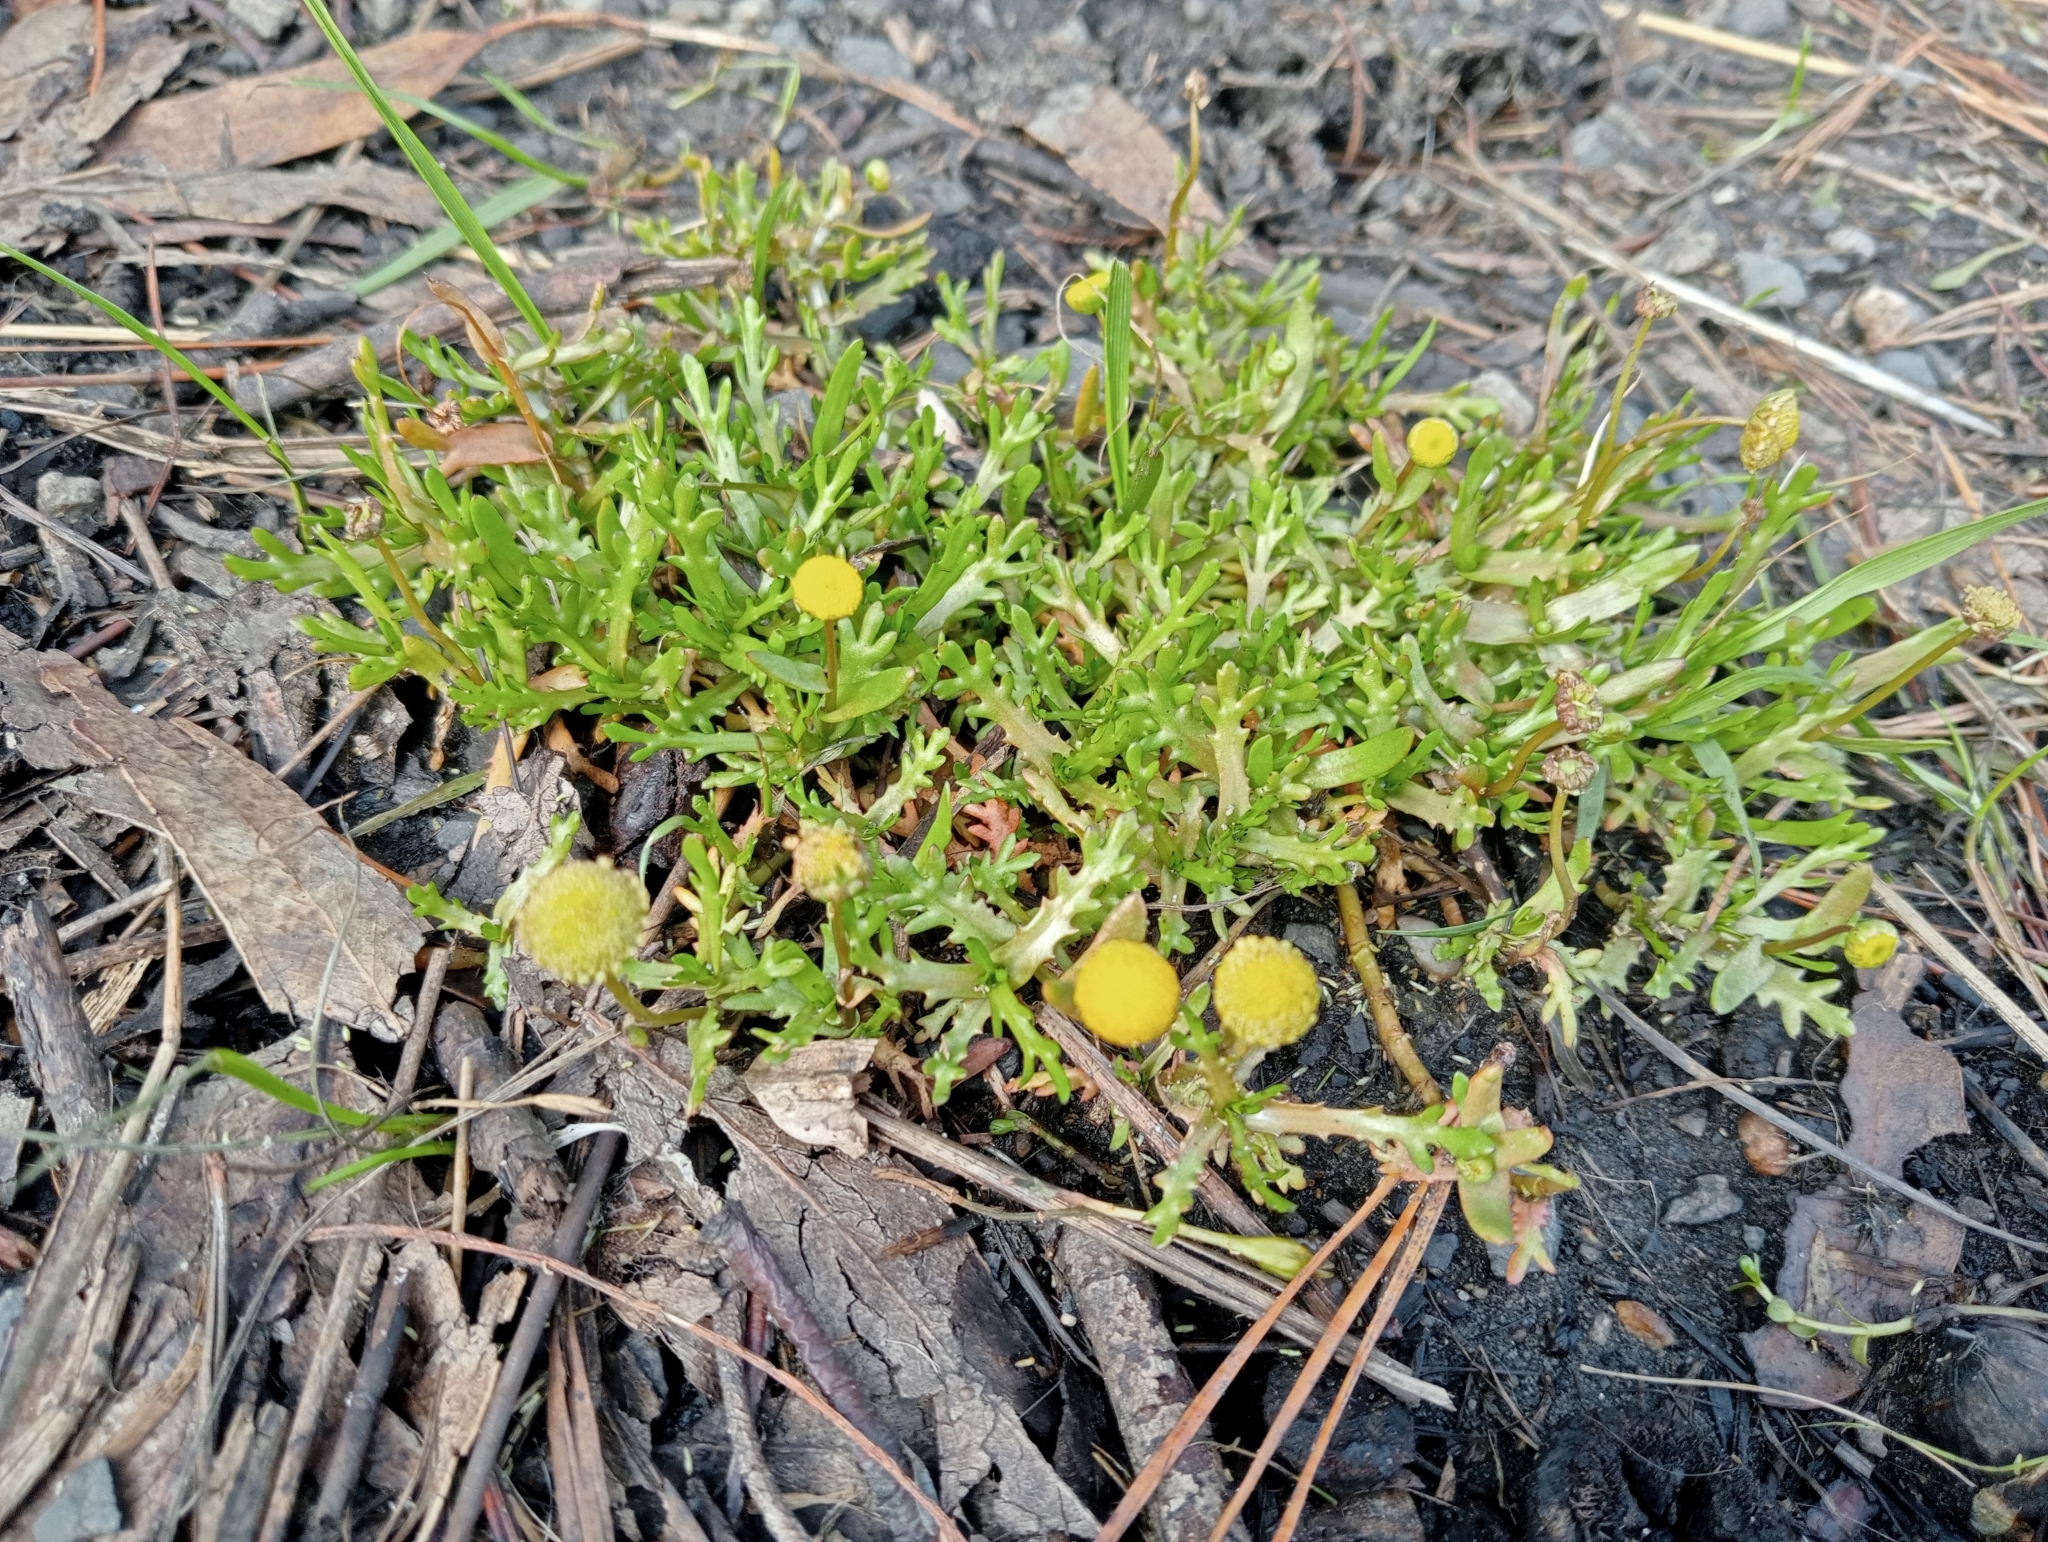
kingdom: Plantae
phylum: Tracheophyta
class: Magnoliopsida
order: Asterales
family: Asteraceae
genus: Cotula
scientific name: Cotula coronopifolia
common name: Buttonweed
